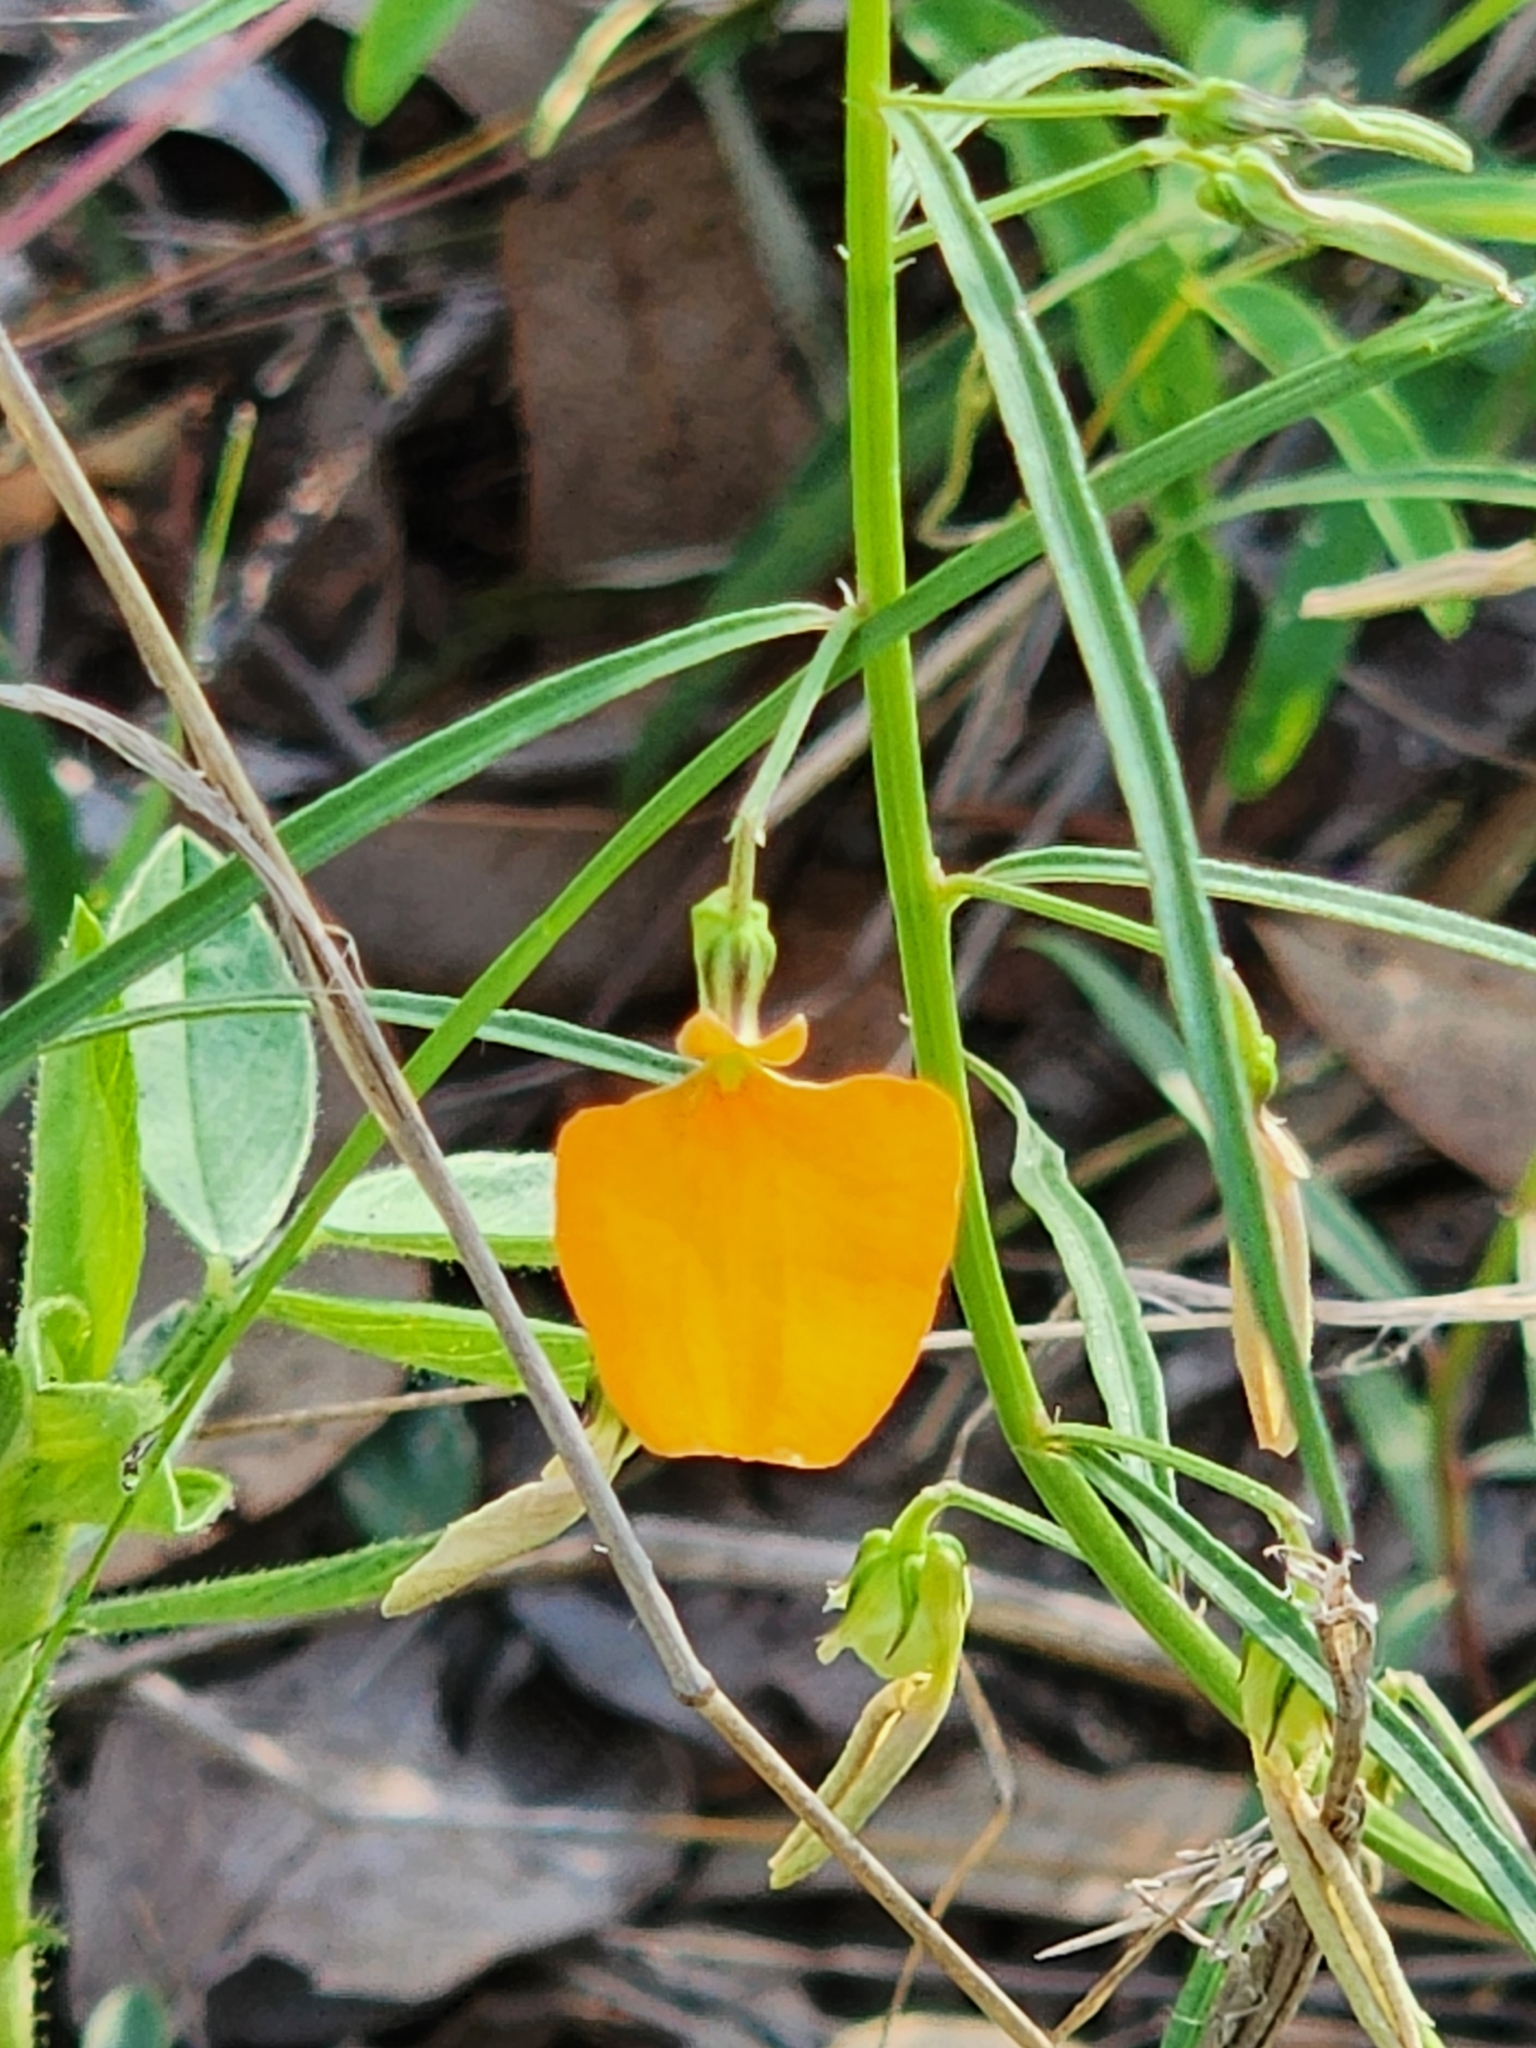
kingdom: Plantae
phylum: Tracheophyta
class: Magnoliopsida
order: Malpighiales
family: Violaceae
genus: Pigea
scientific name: Pigea stellarioides
